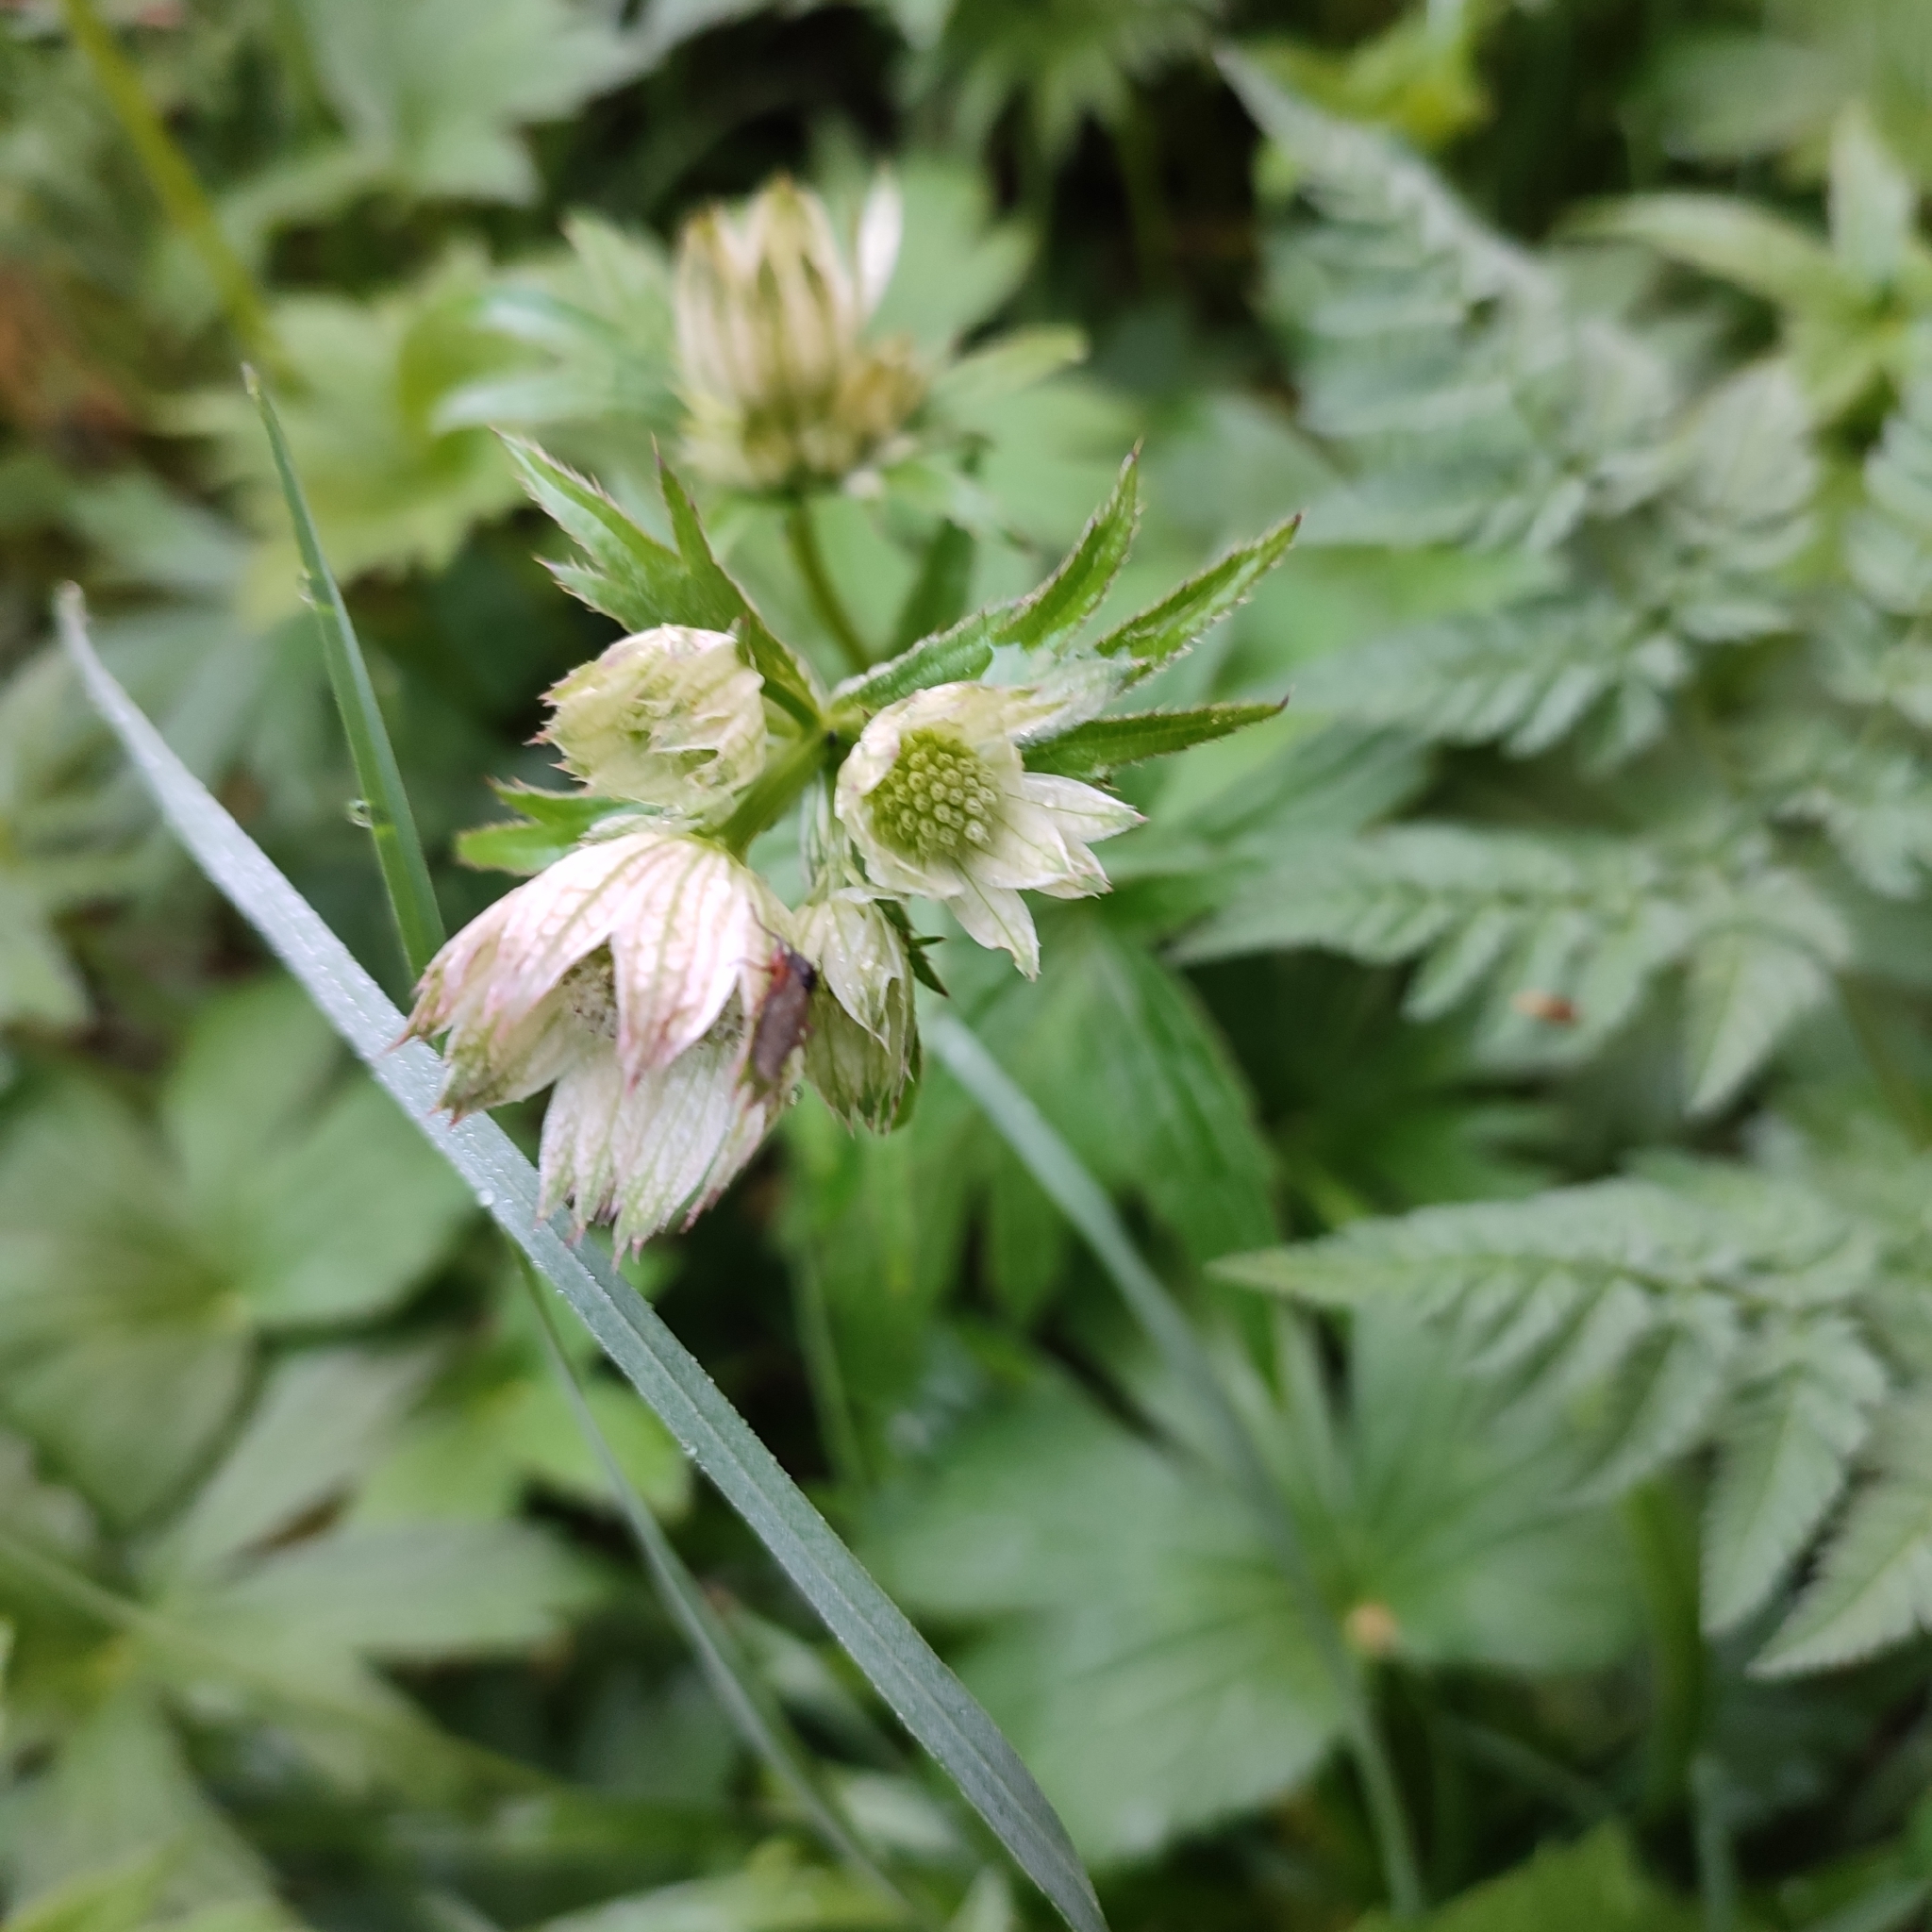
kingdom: Plantae
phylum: Tracheophyta
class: Magnoliopsida
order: Apiales
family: Apiaceae
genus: Astrantia
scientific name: Astrantia major
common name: Greater masterwort
